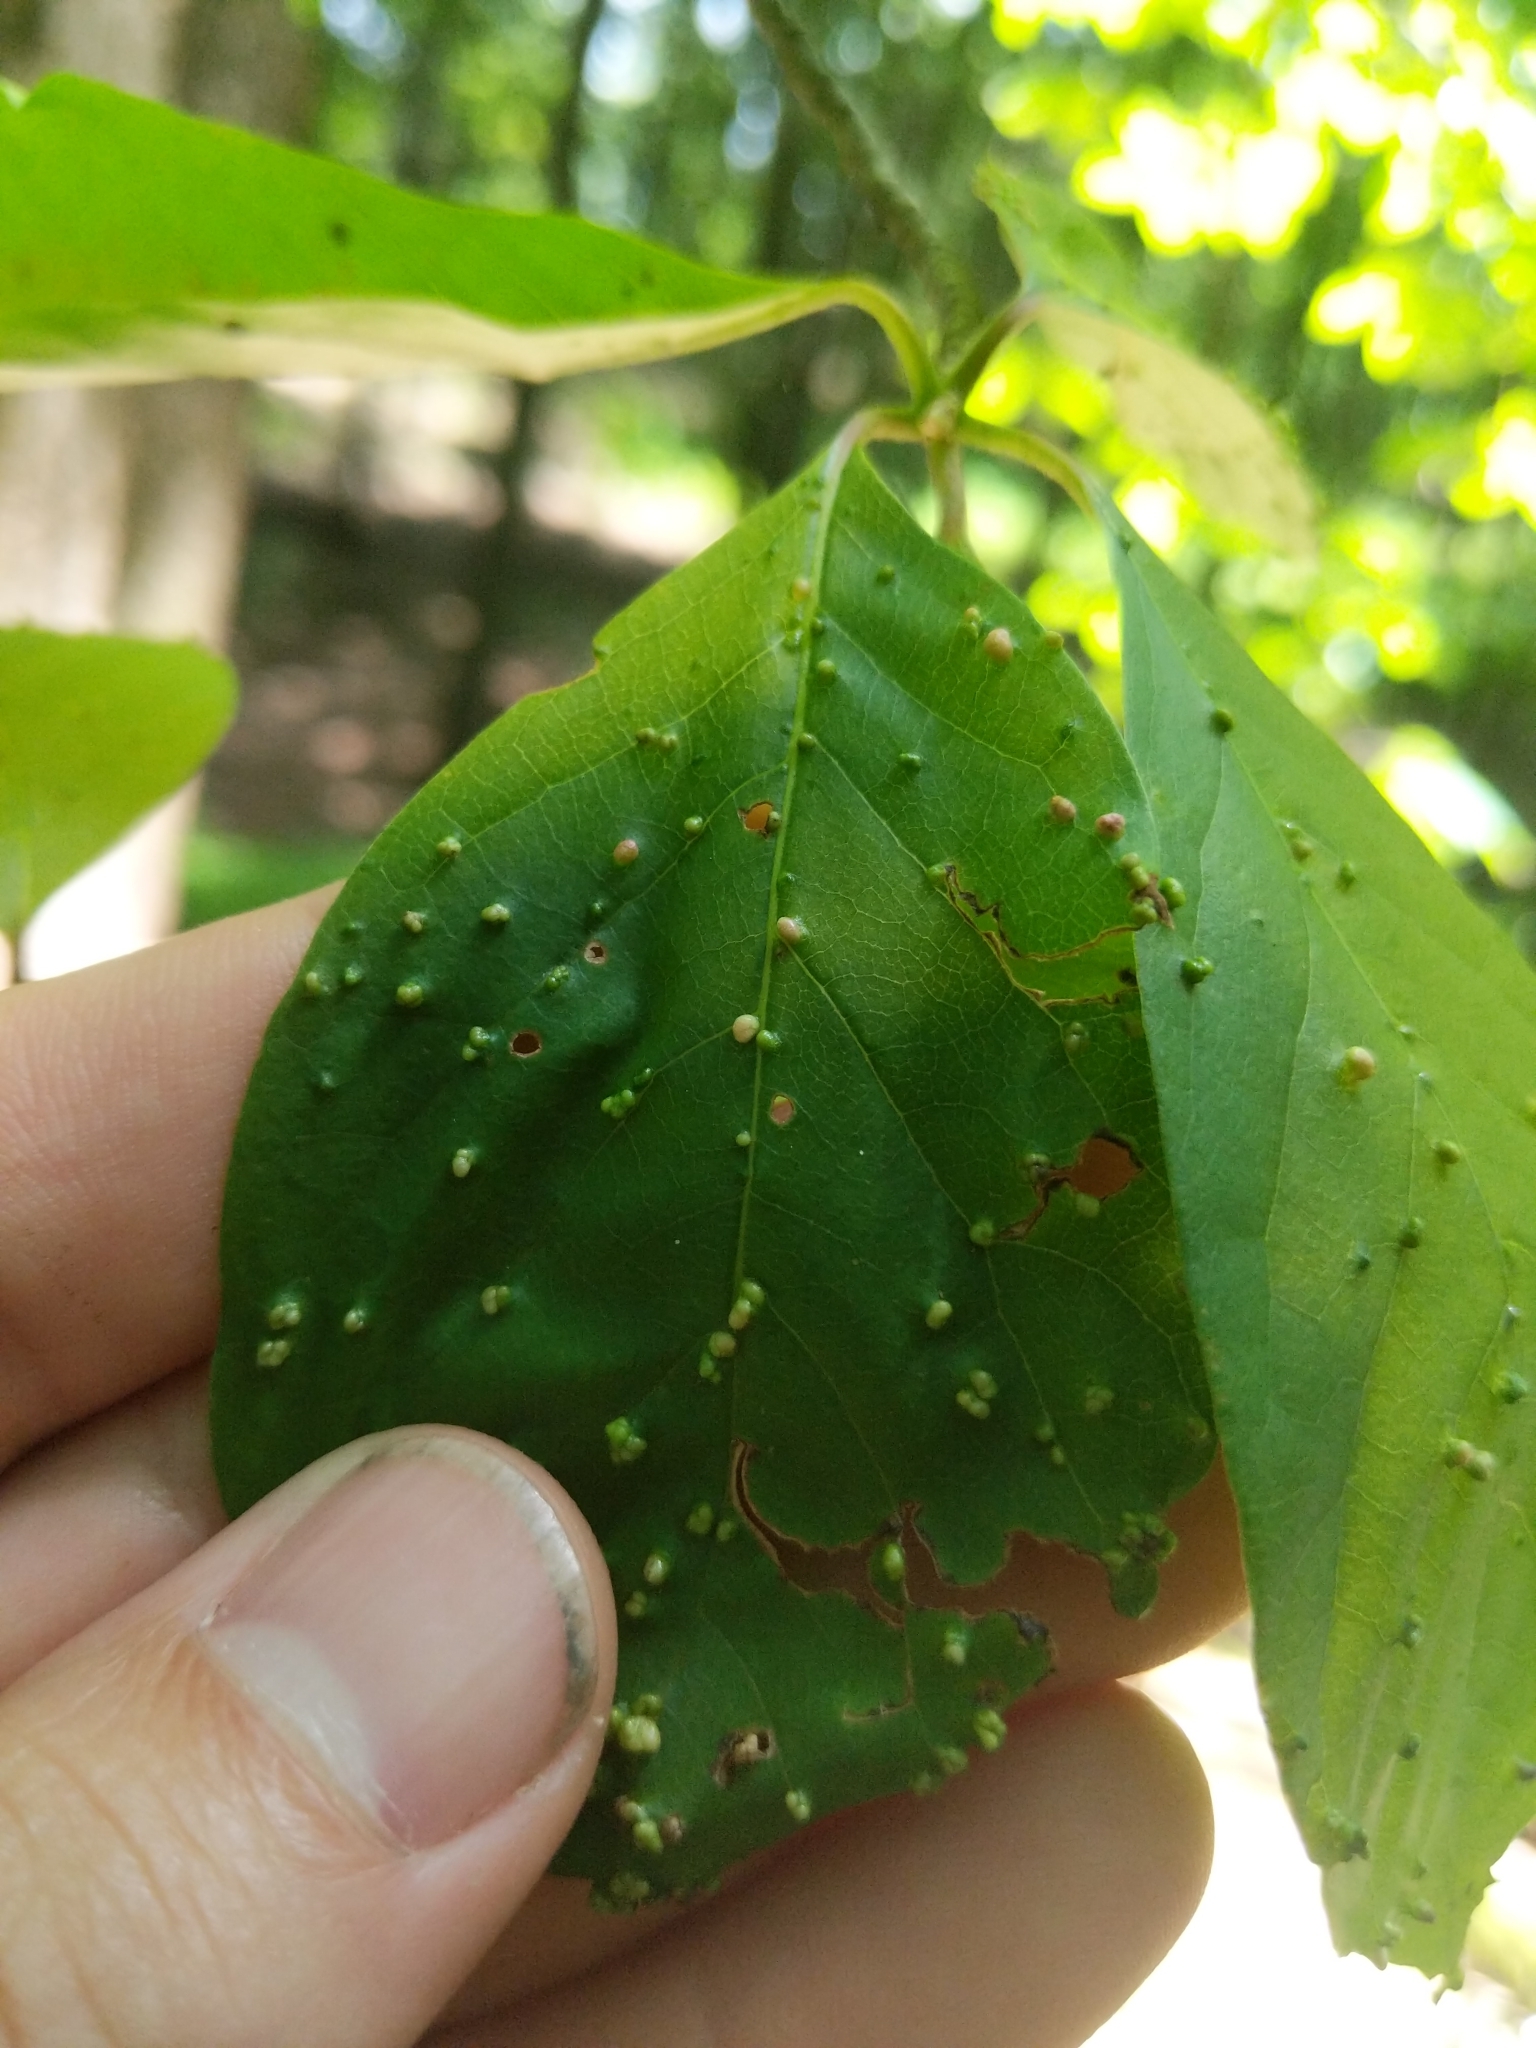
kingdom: Animalia
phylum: Arthropoda
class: Arachnida
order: Trombidiformes
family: Eriophyidae
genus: Aceria
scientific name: Aceria
